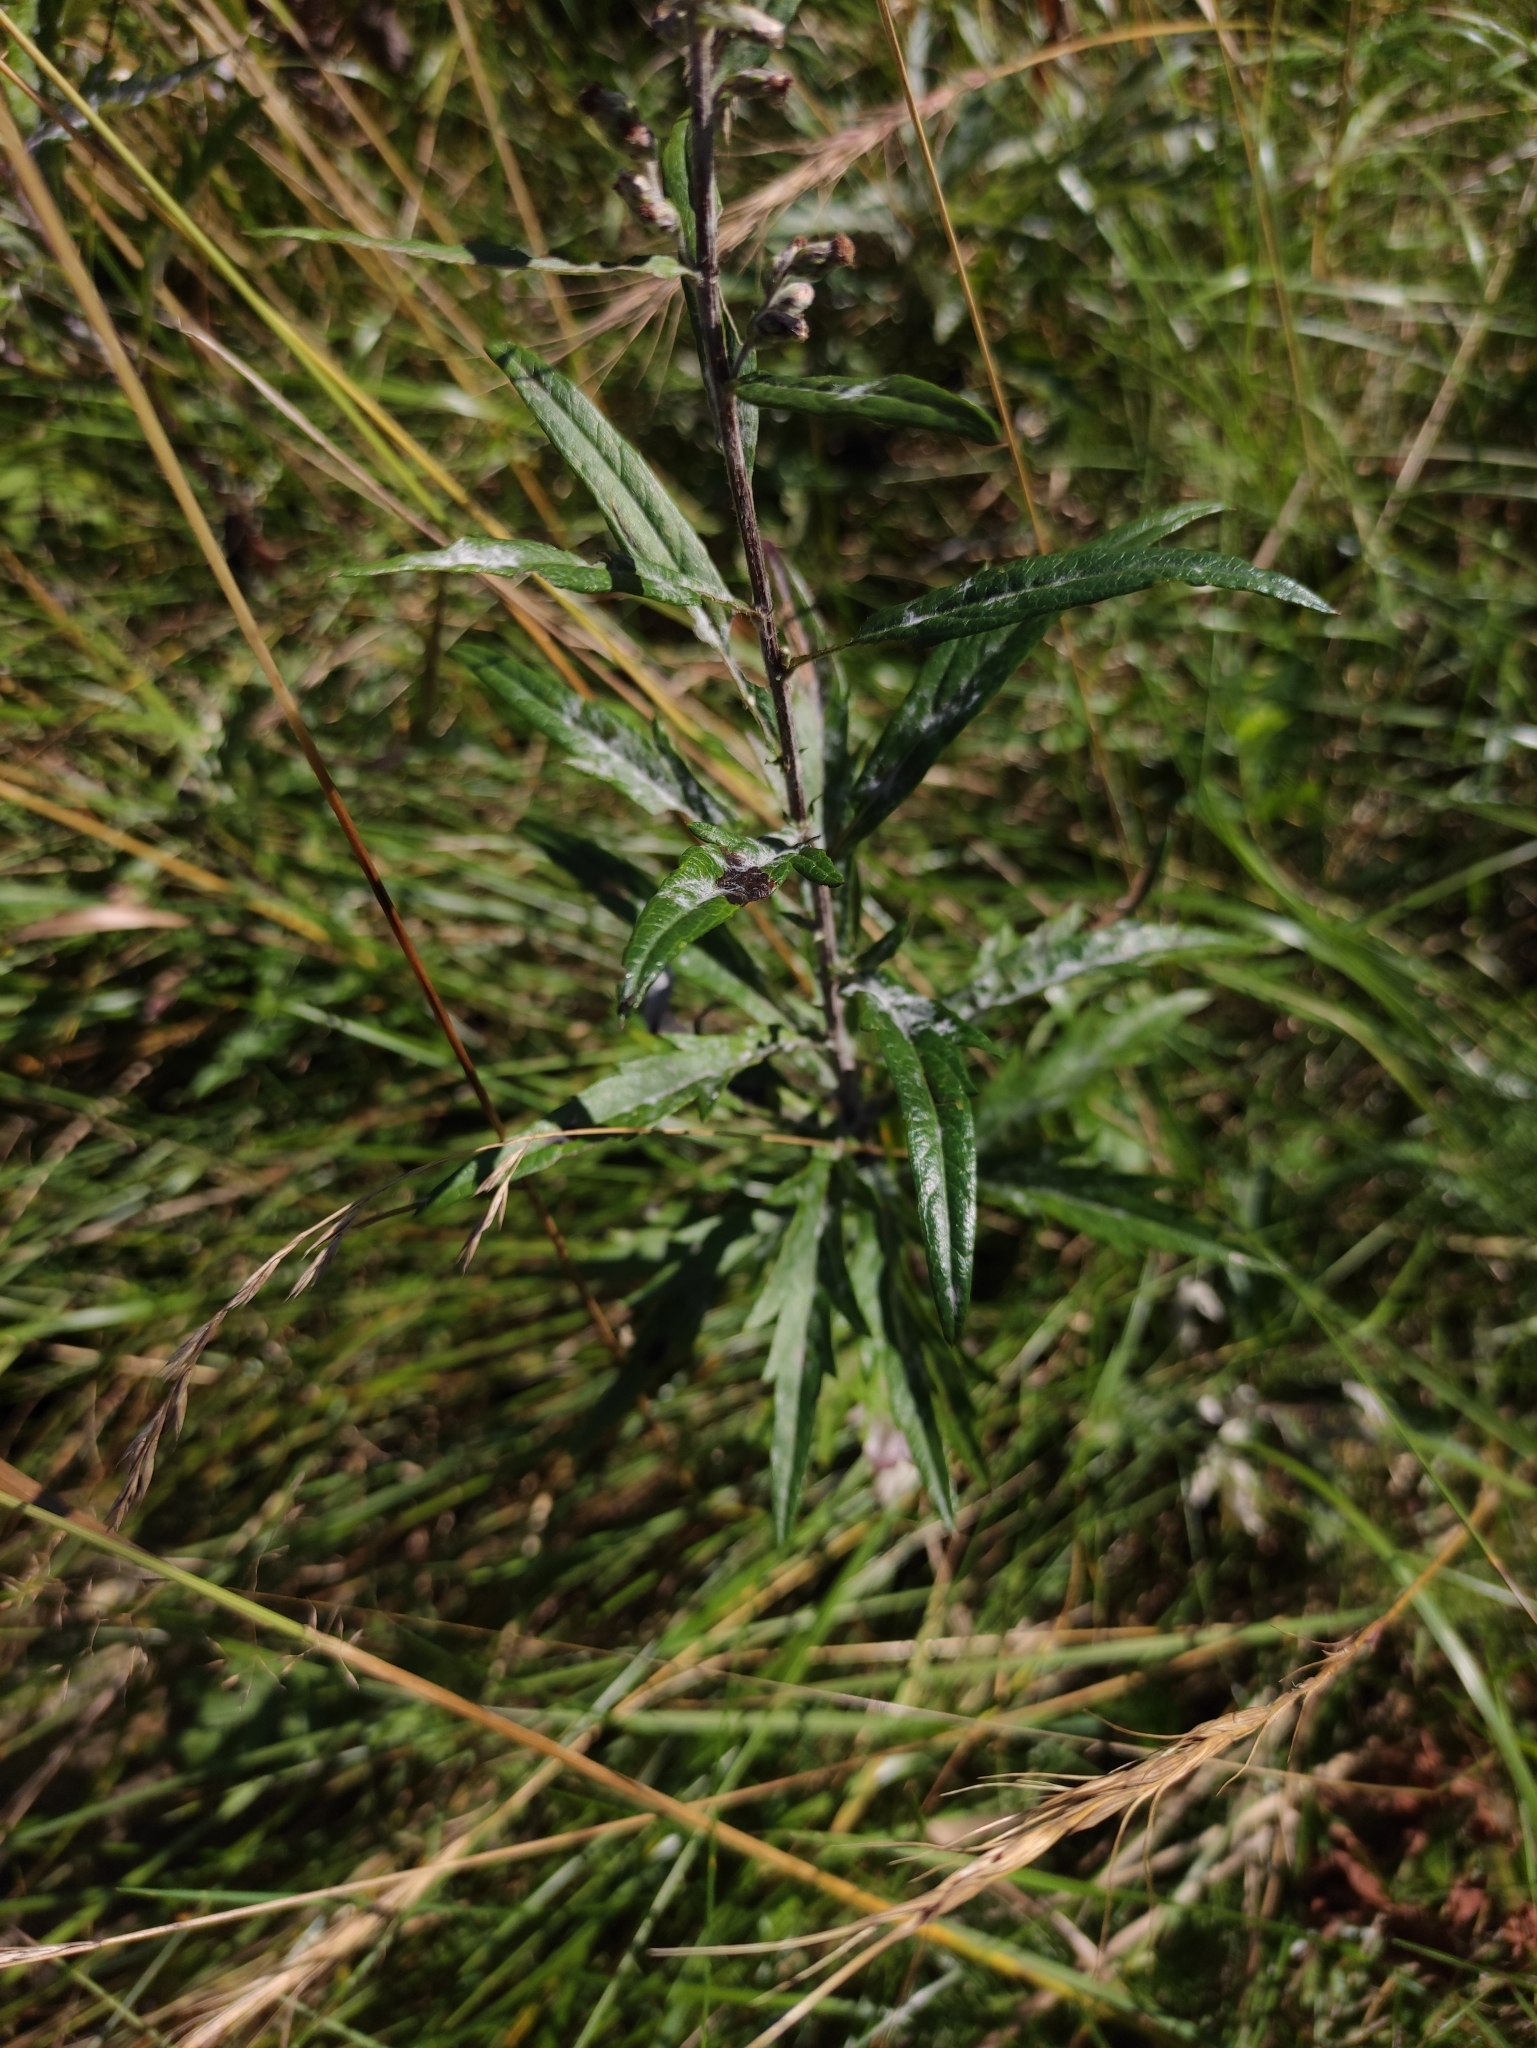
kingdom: Plantae
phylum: Tracheophyta
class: Magnoliopsida
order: Asterales
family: Asteraceae
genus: Artemisia
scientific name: Artemisia integrifolia
